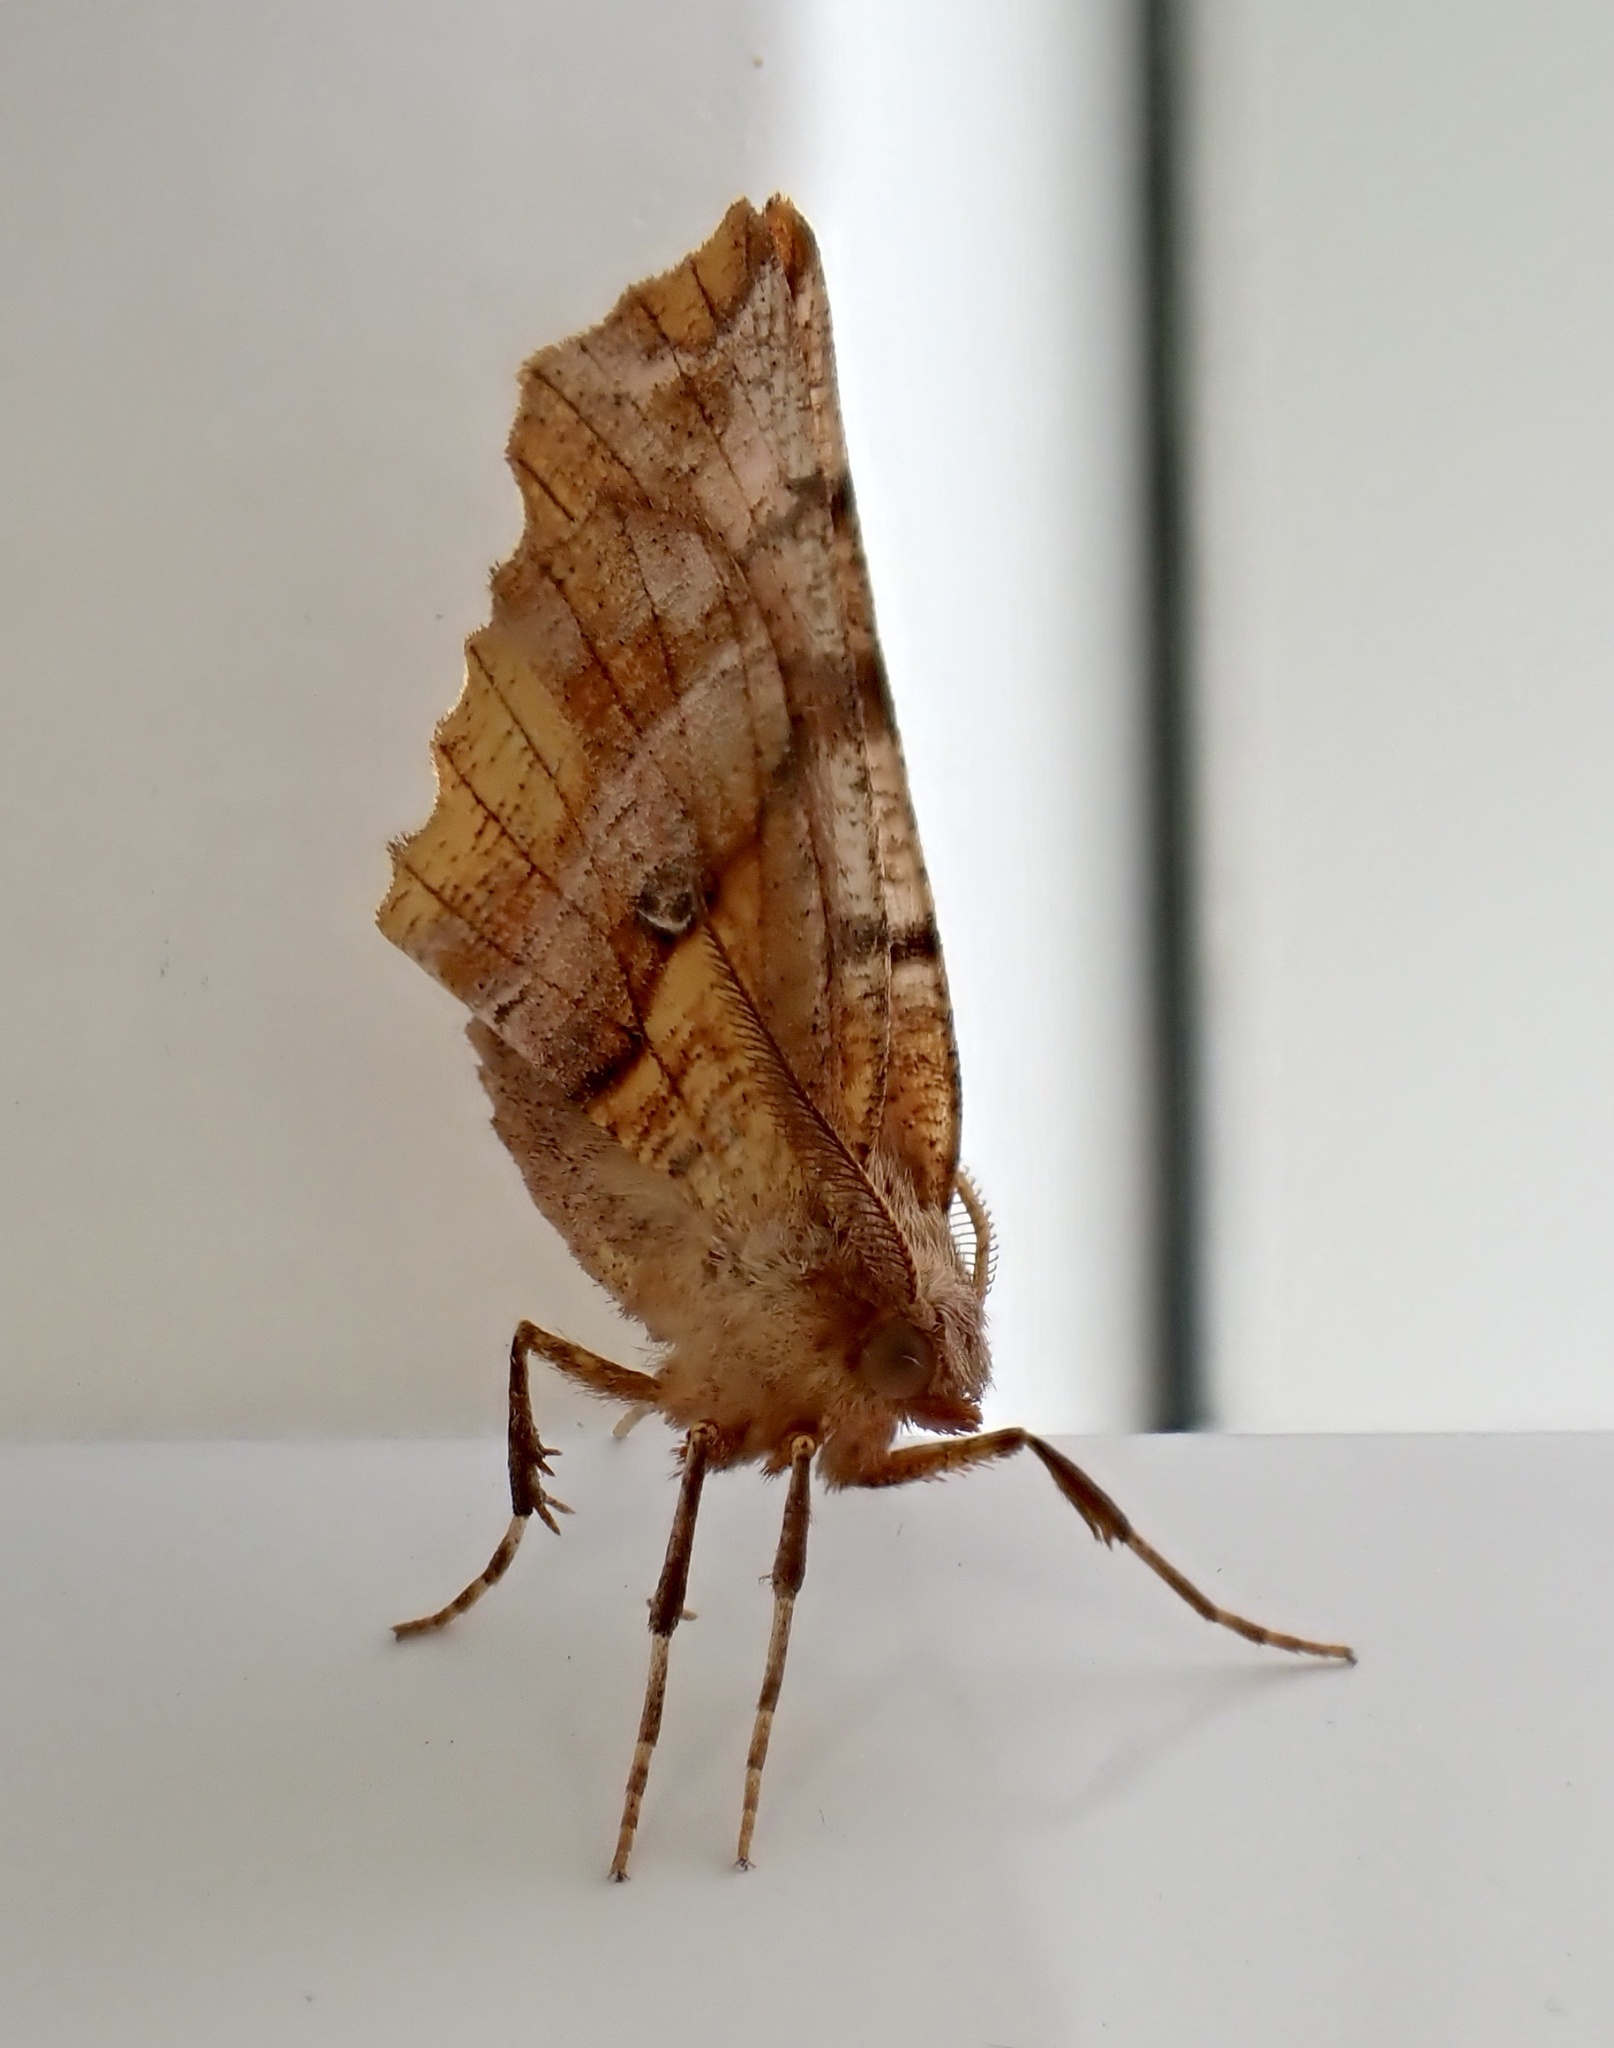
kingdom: Animalia
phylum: Arthropoda
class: Insecta
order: Lepidoptera
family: Geometridae
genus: Selenia
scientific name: Selenia dentaria
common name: Early thorn
